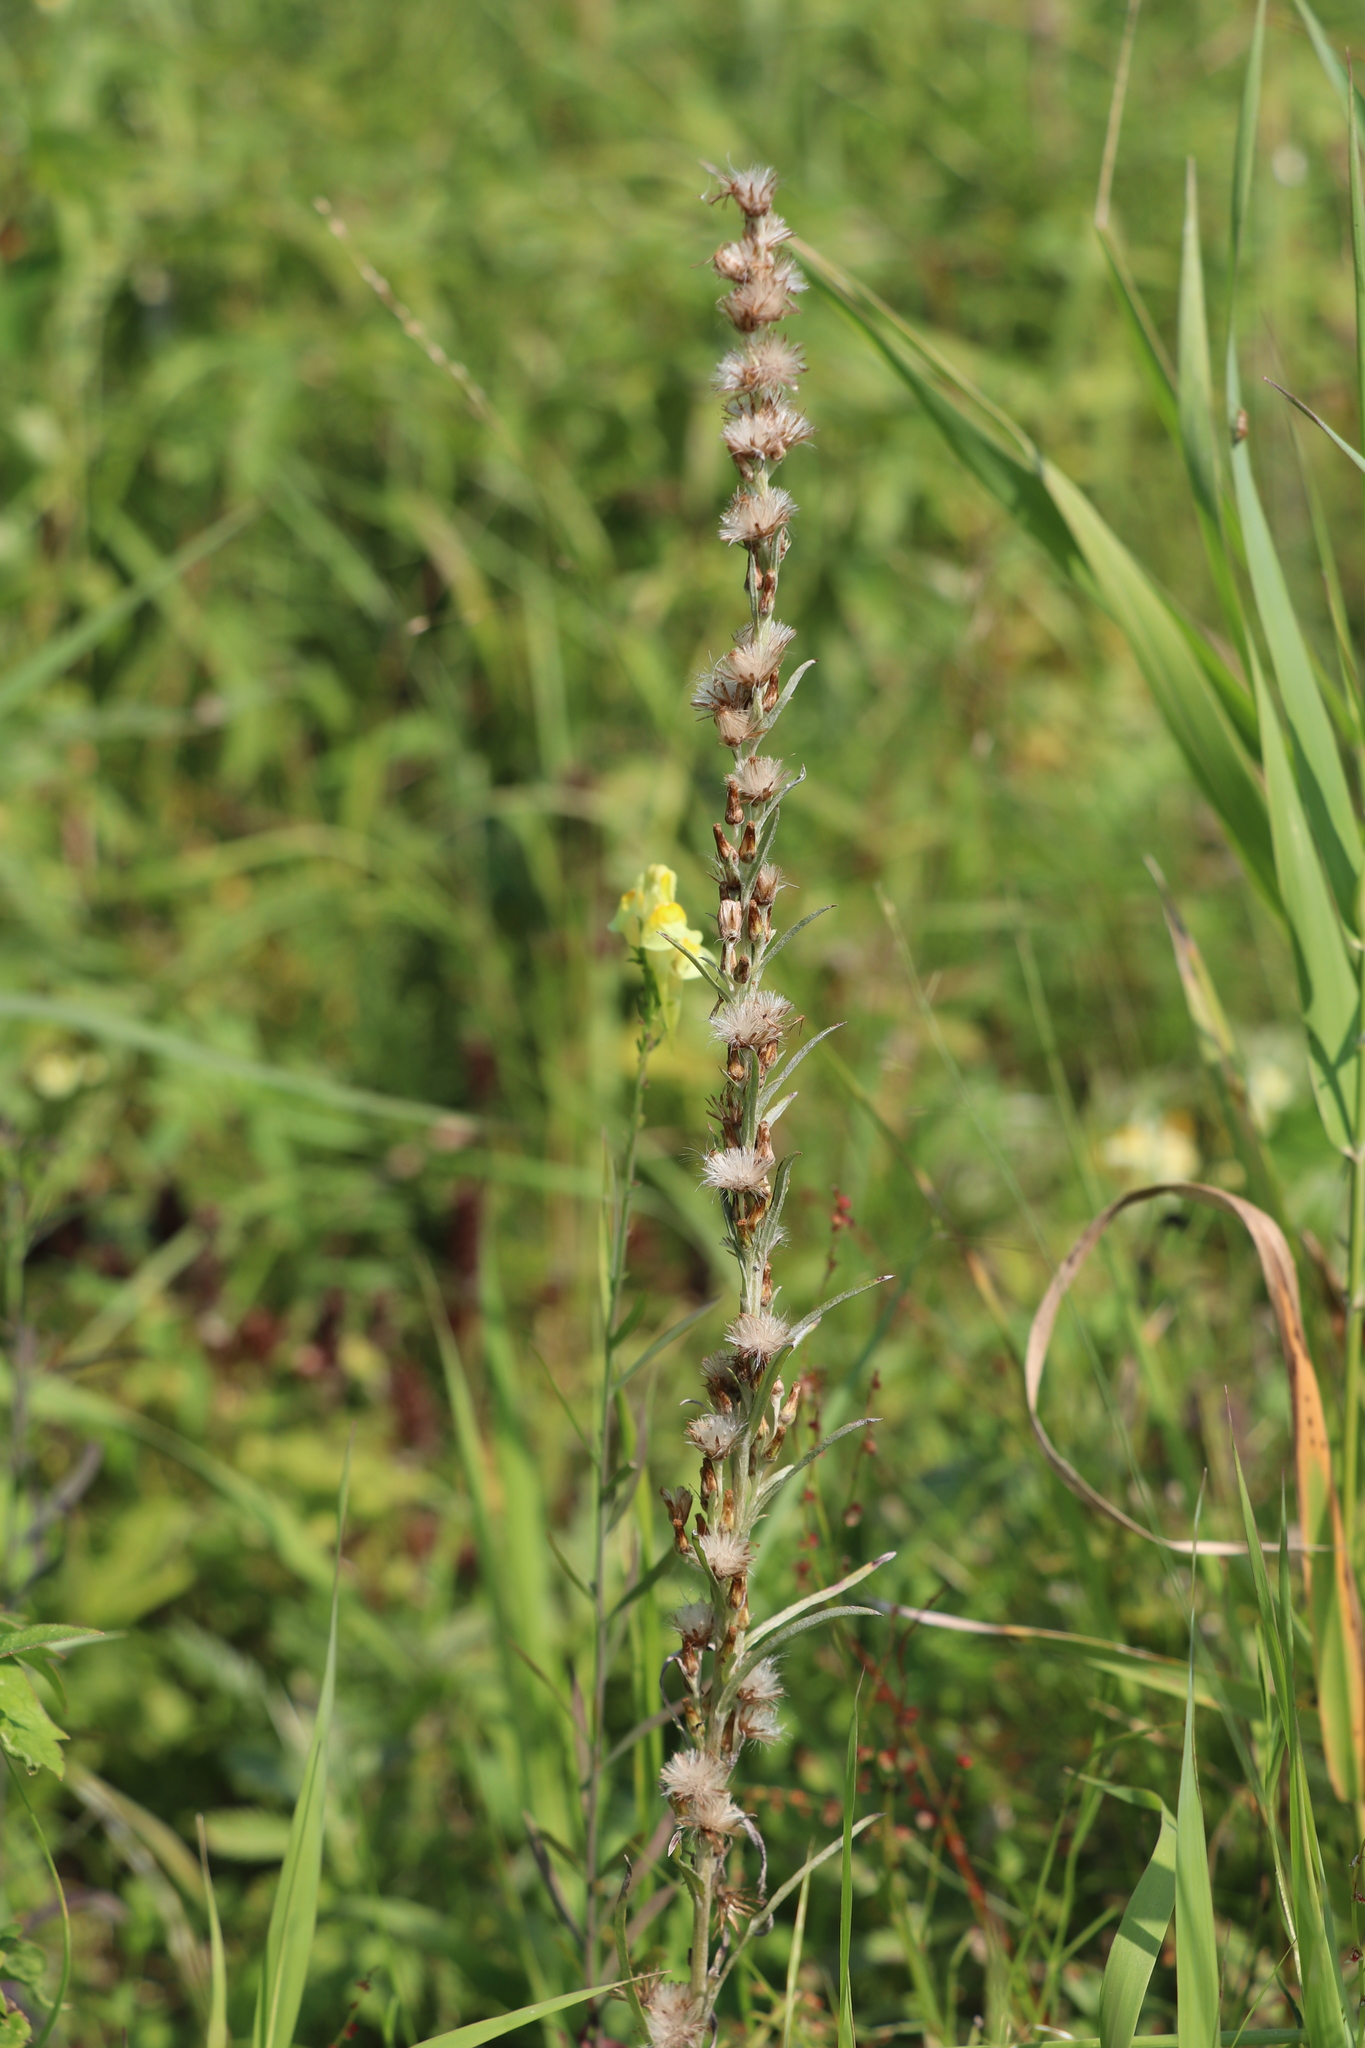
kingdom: Plantae
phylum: Tracheophyta
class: Magnoliopsida
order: Asterales
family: Asteraceae
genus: Omalotheca
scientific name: Omalotheca sylvatica
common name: Heath cudweed
